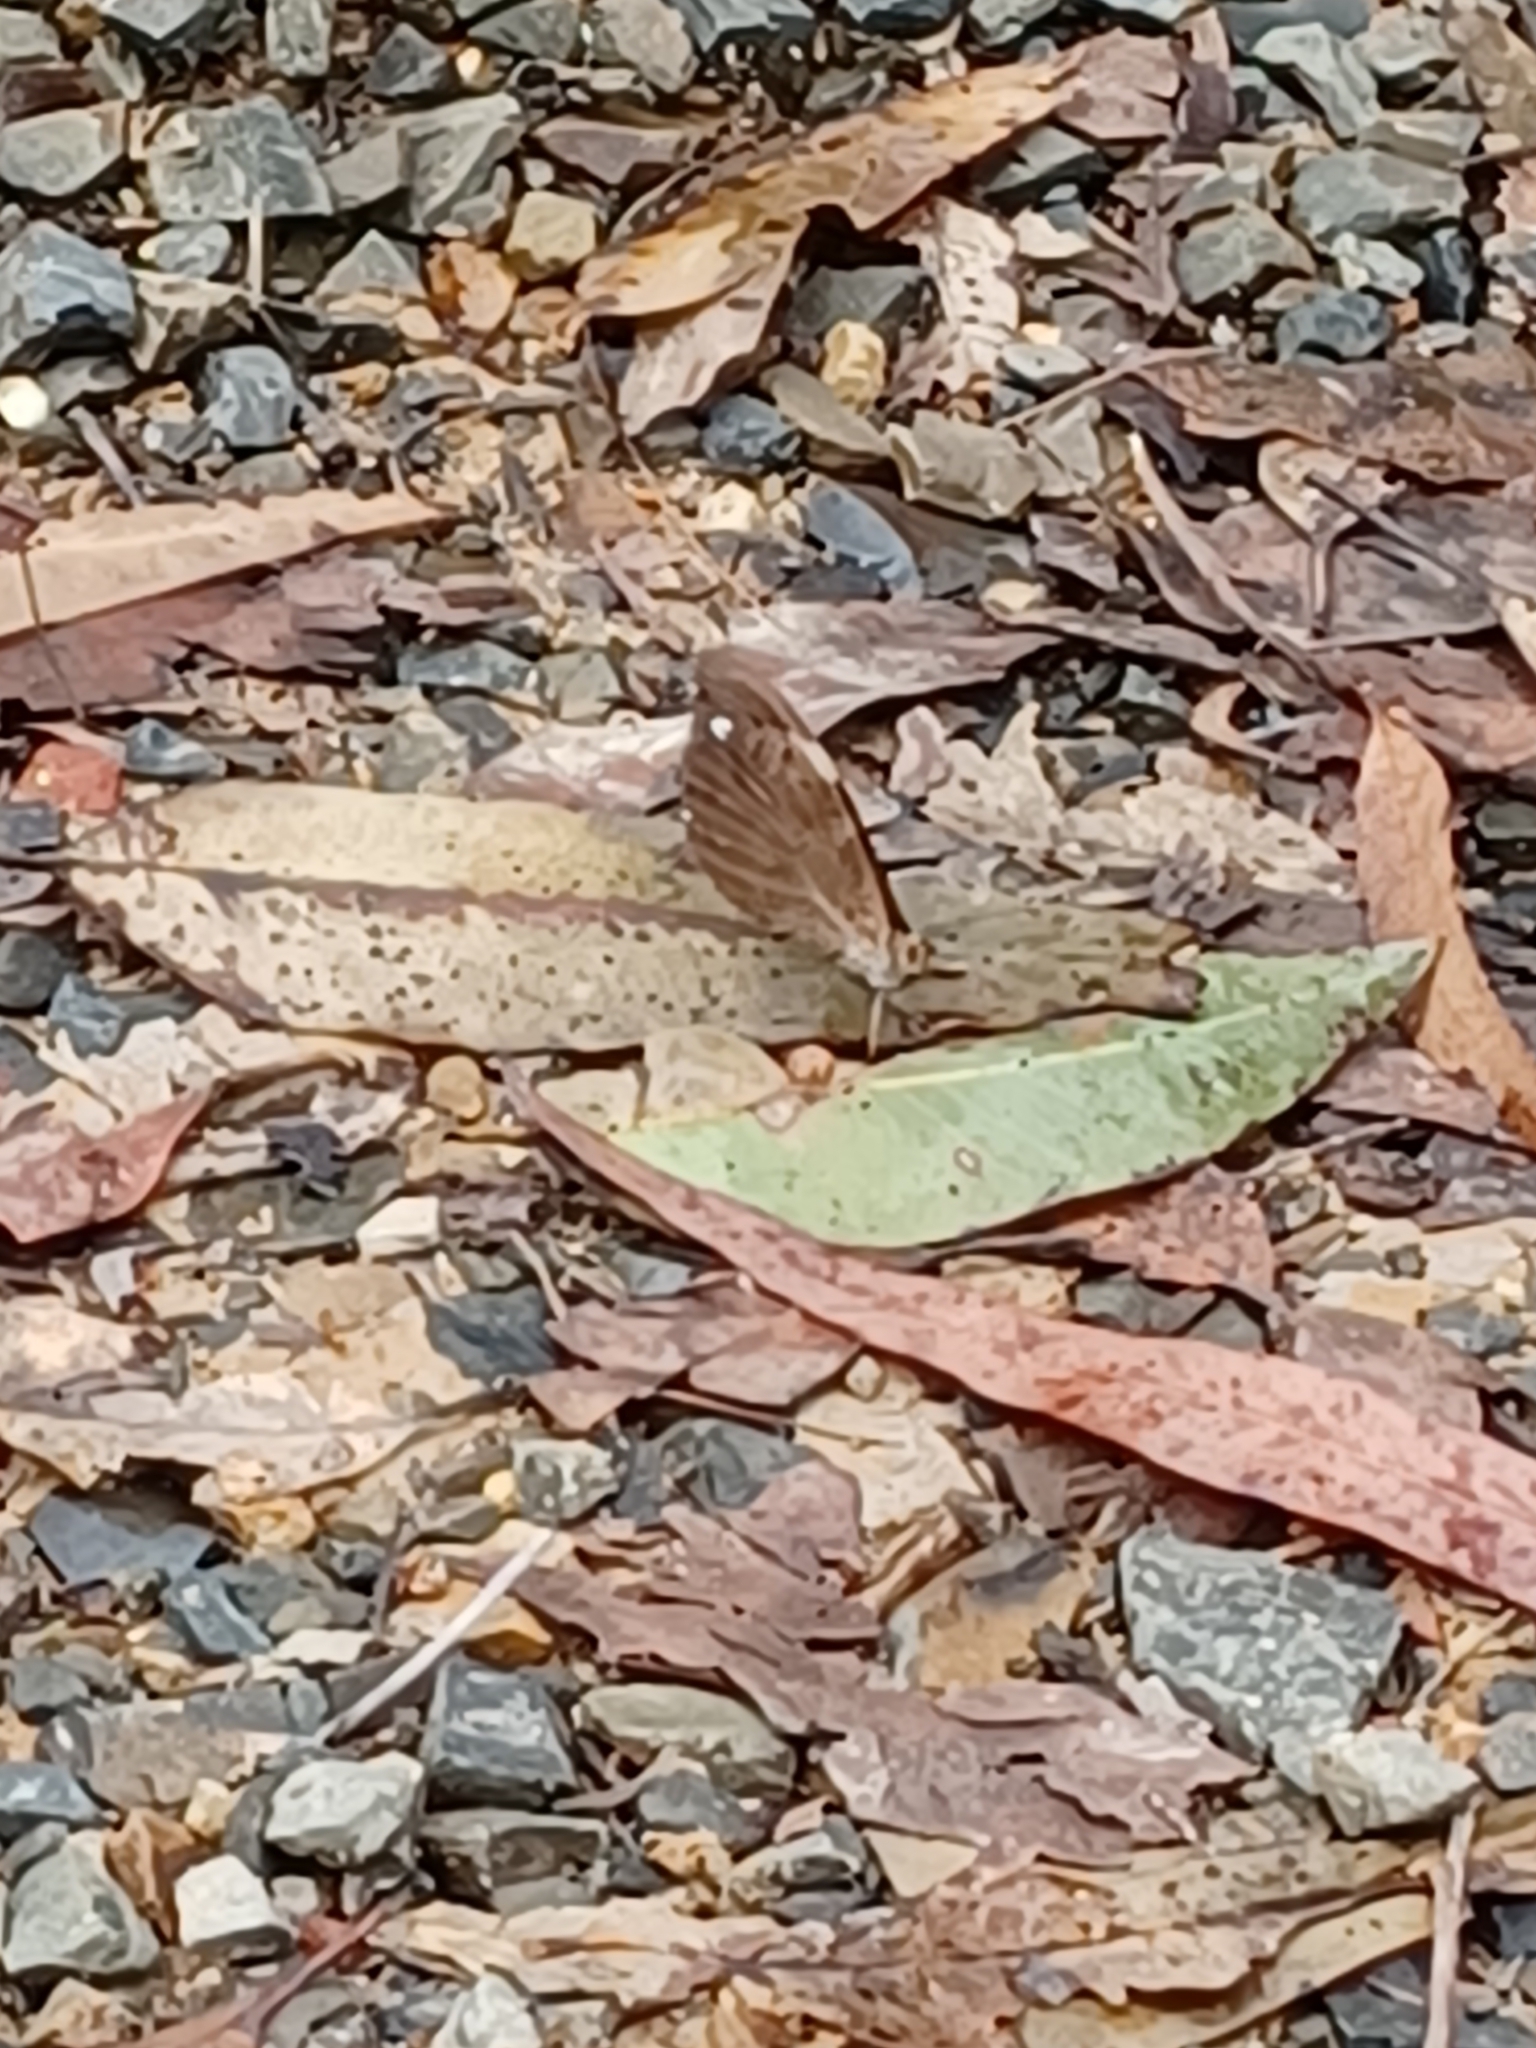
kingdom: Animalia
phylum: Arthropoda
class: Insecta
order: Lepidoptera
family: Nymphalidae
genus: Heteronympha
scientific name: Heteronympha mirifica
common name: Wonder brown
